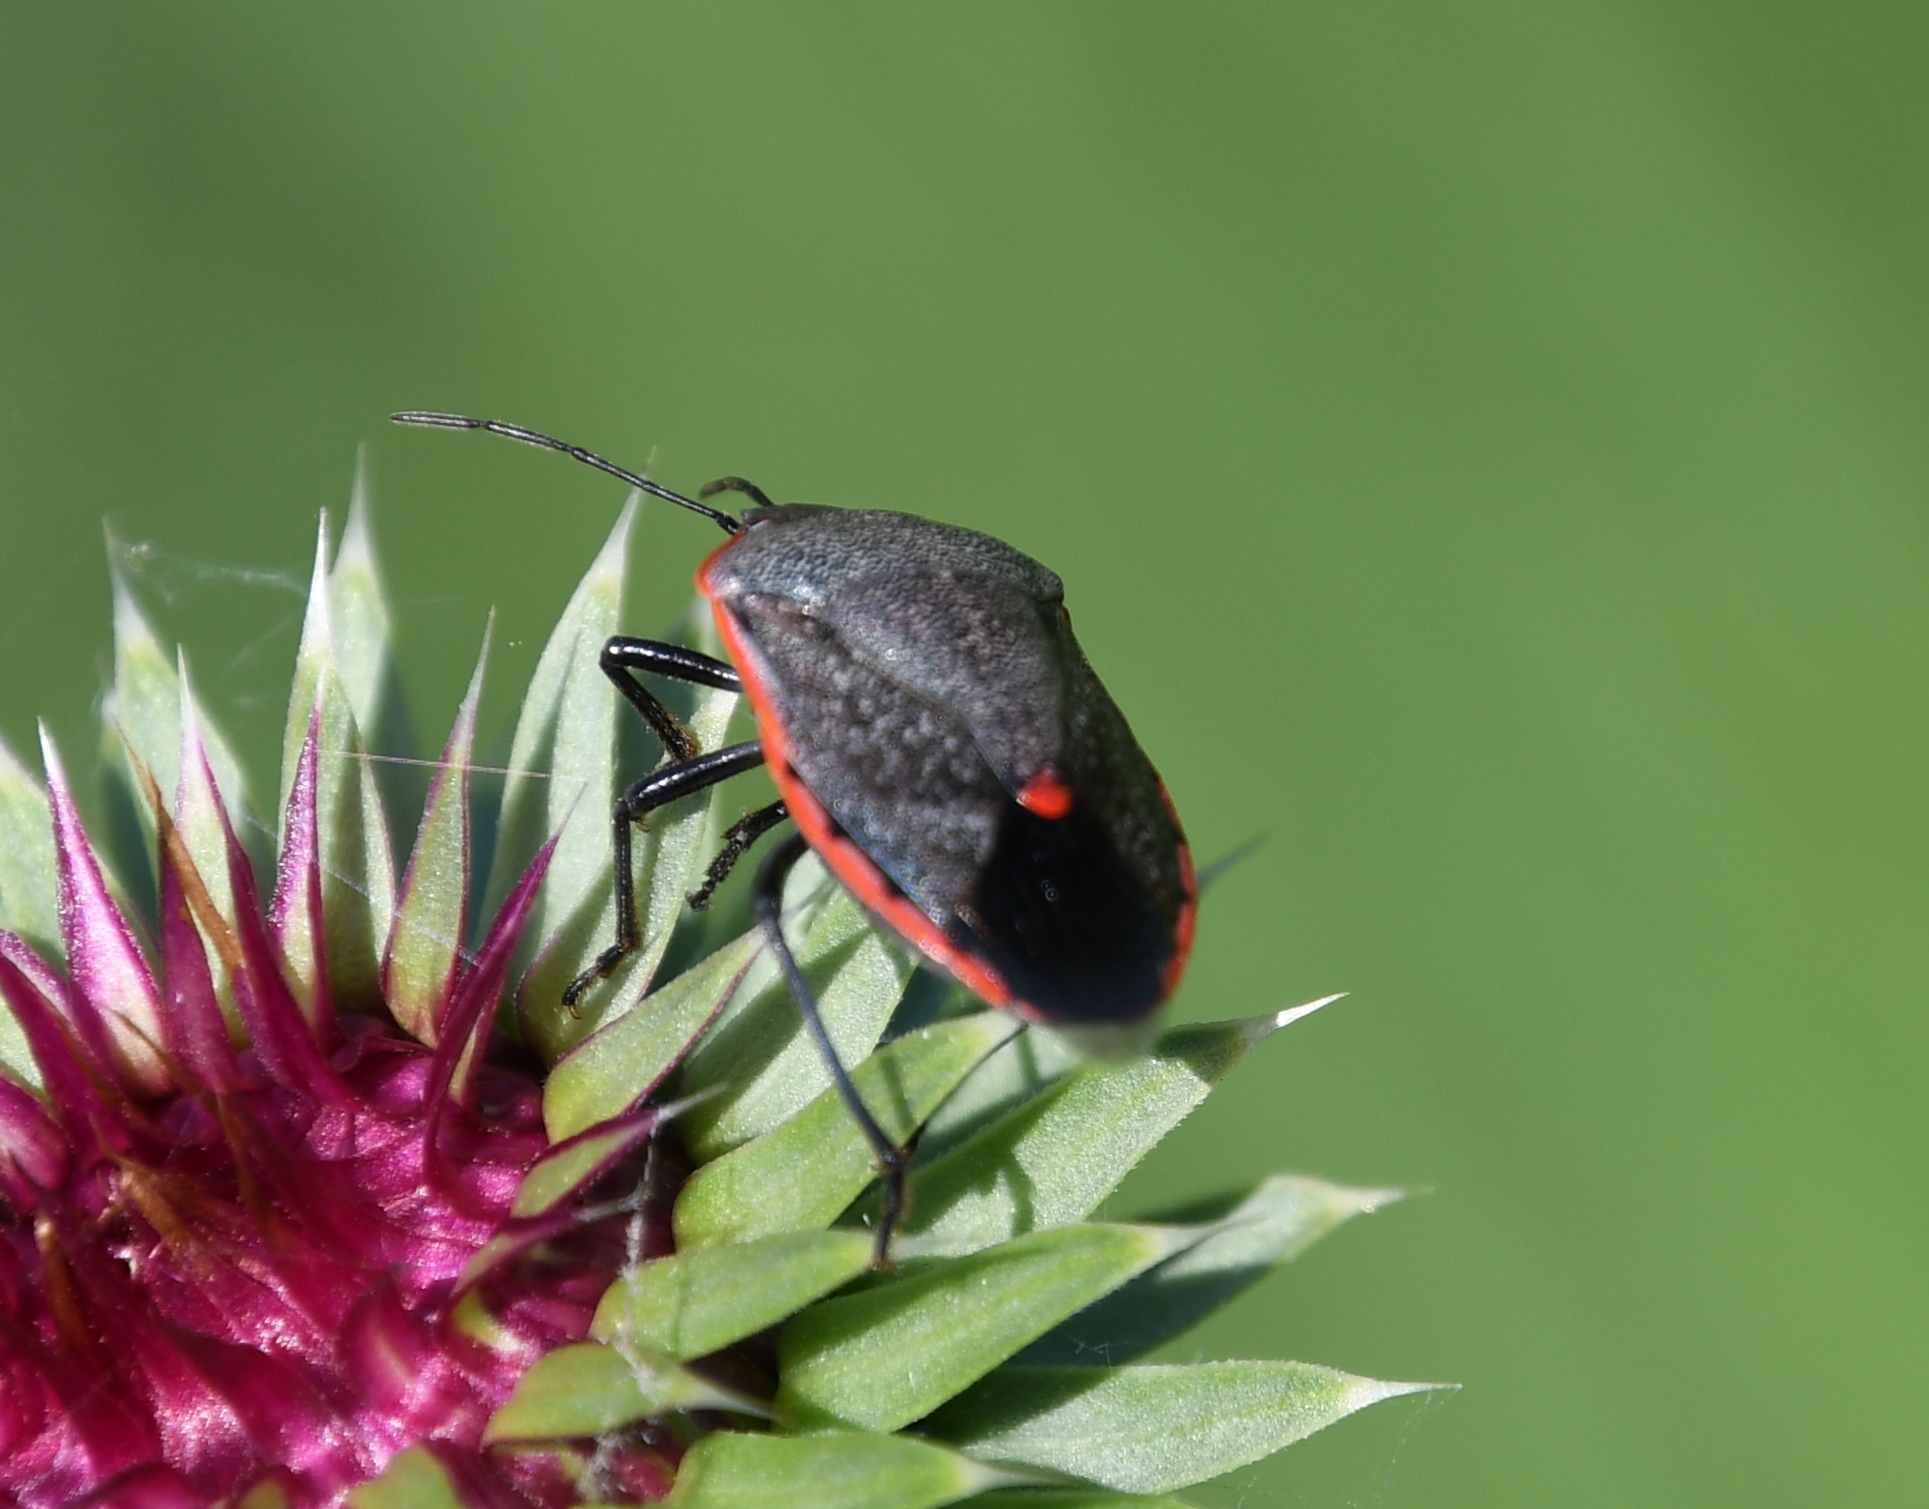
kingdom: Animalia
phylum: Arthropoda
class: Insecta
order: Hemiptera
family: Pentatomidae
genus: Chlorochroa
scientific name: Chlorochroa ligata
